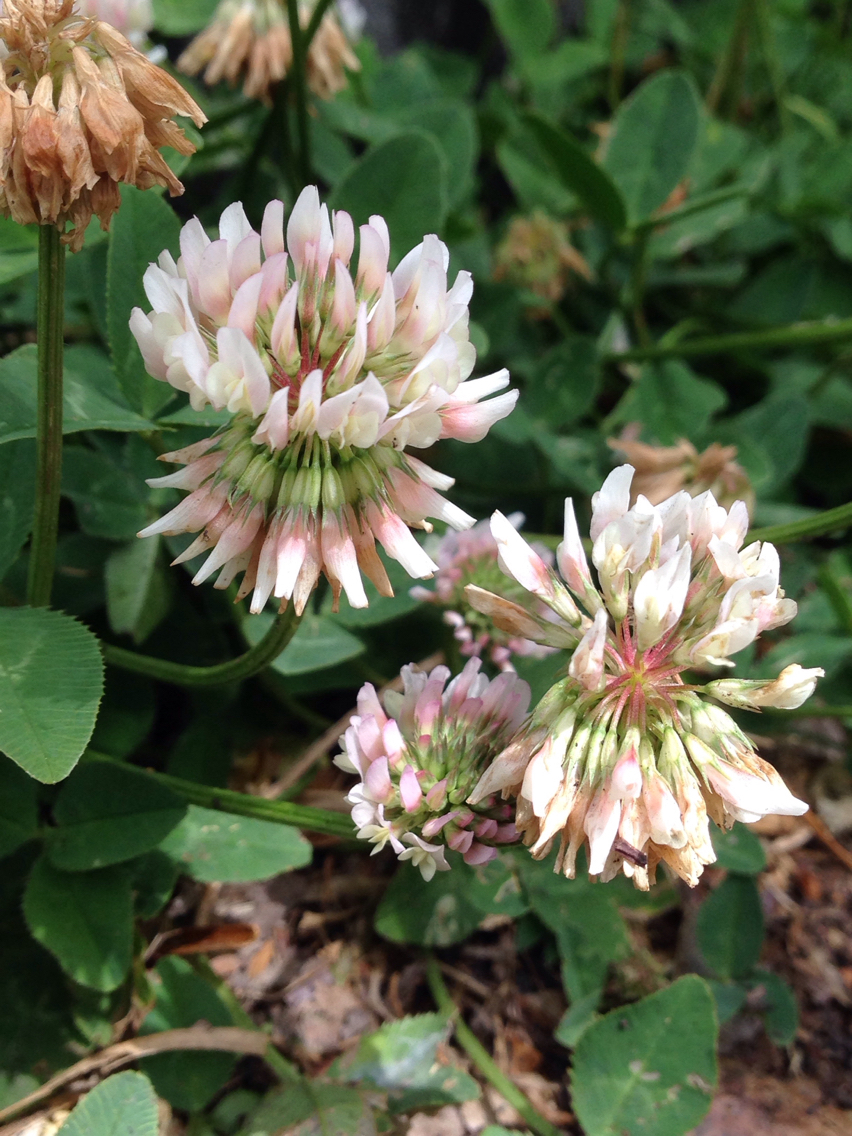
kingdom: Plantae
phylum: Tracheophyta
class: Magnoliopsida
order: Fabales
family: Fabaceae
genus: Trifolium
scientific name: Trifolium repens
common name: White clover
